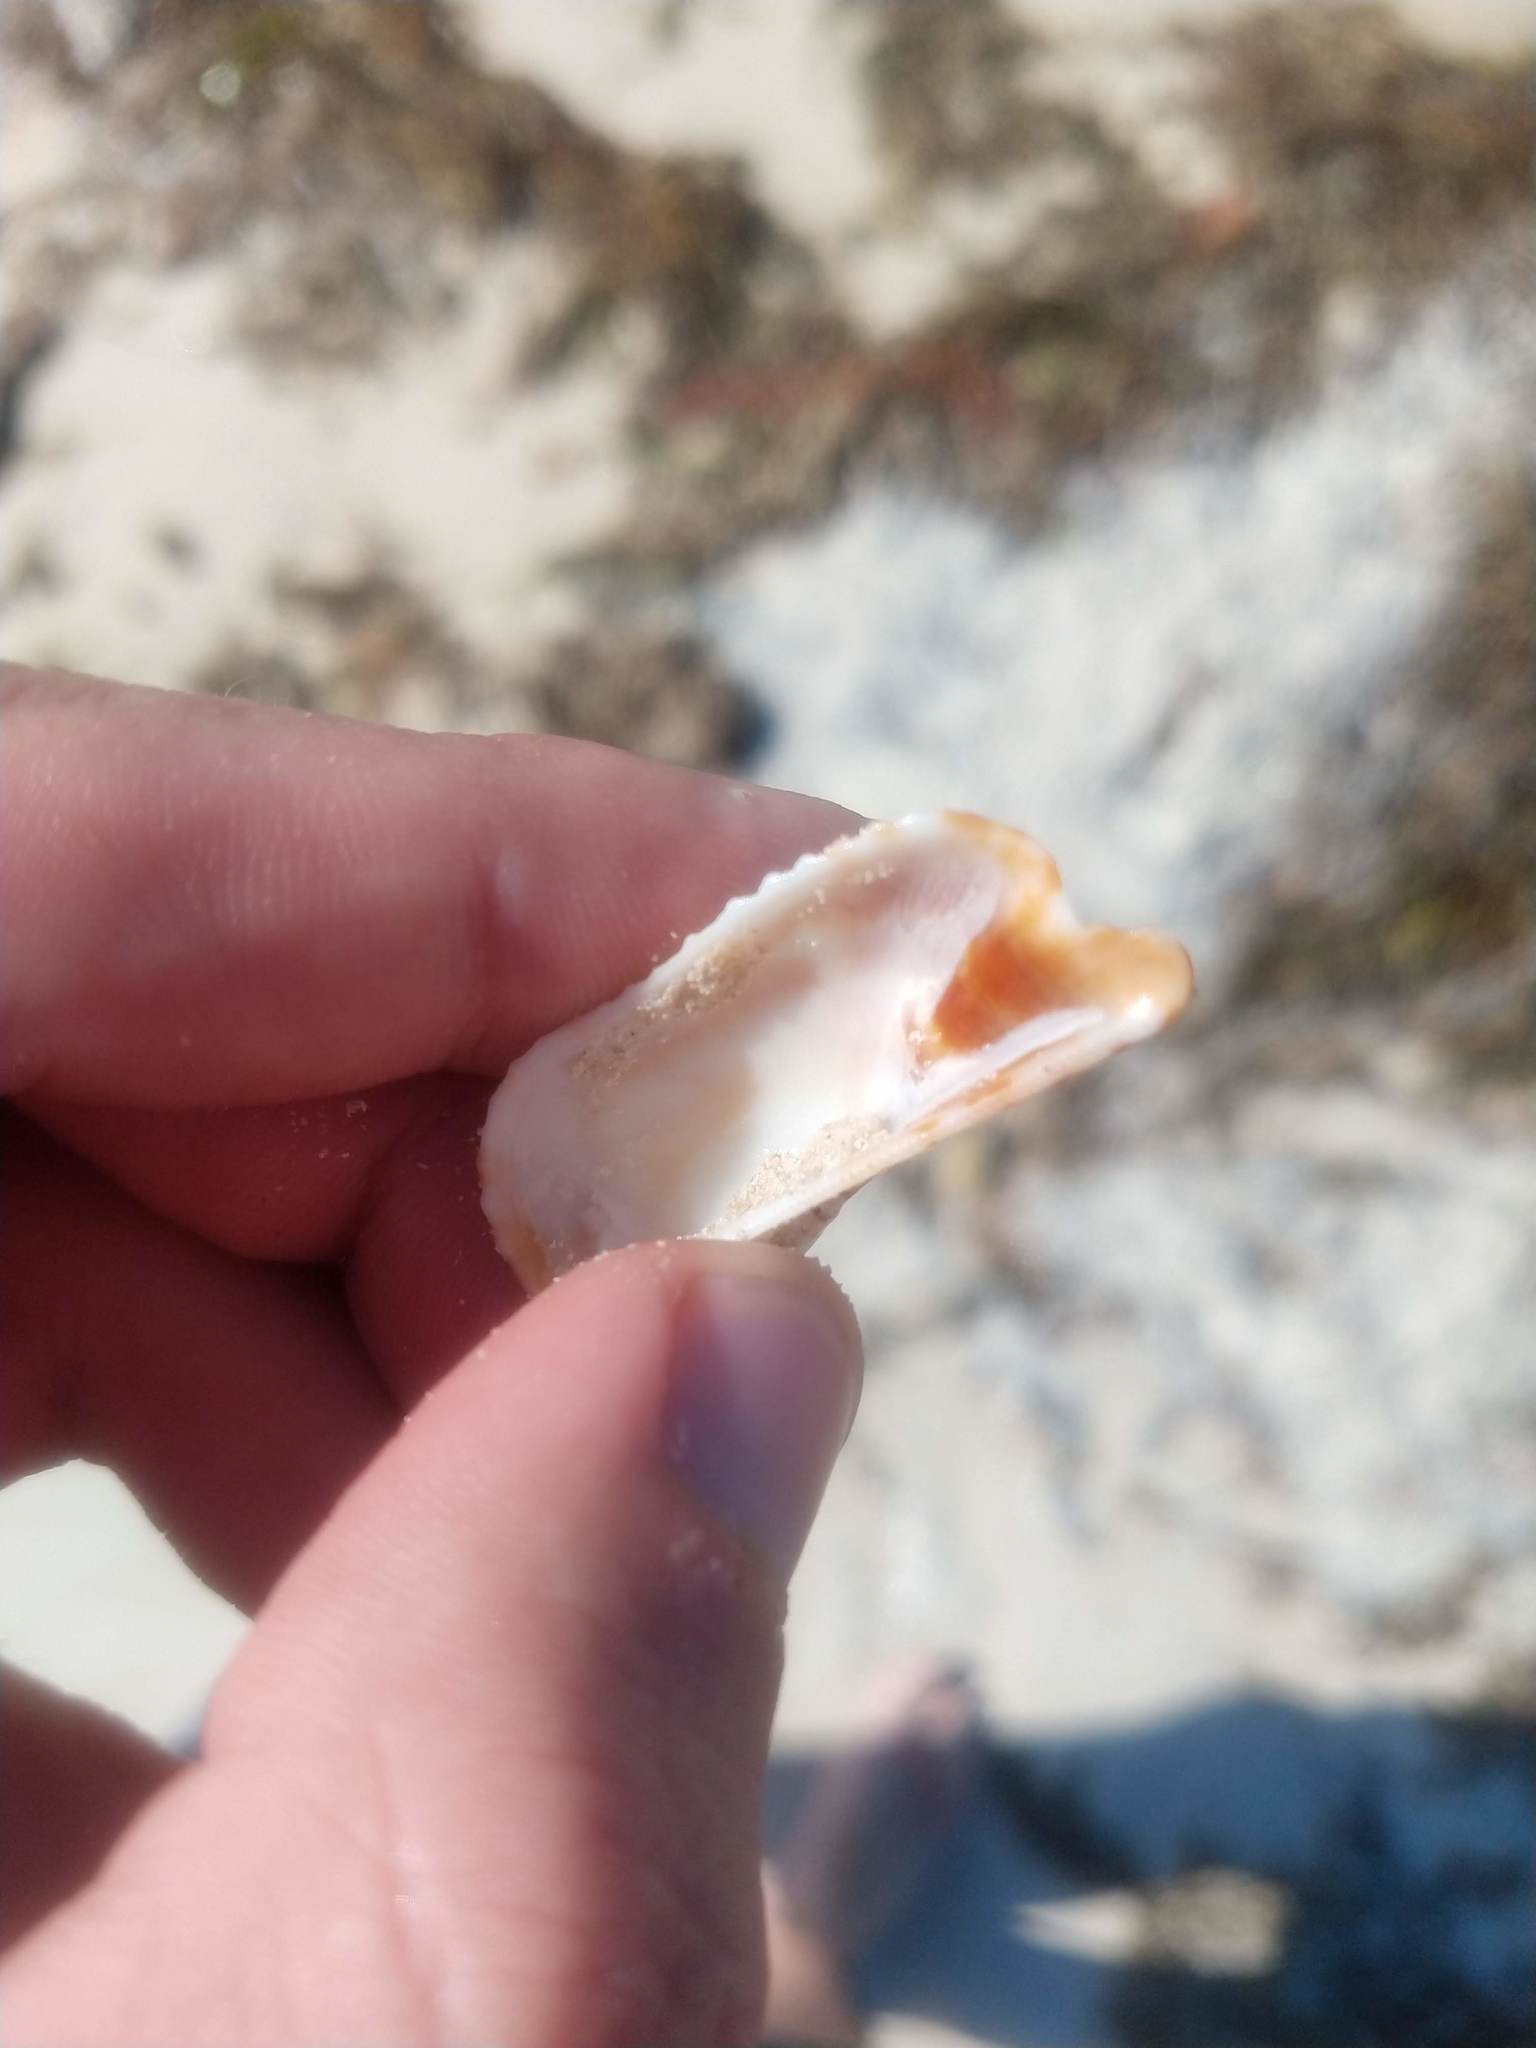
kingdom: Animalia
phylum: Mollusca
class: Bivalvia
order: Arcida
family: Arcidae
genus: Arca
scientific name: Arca zebra
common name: Atlantic turkey wing
